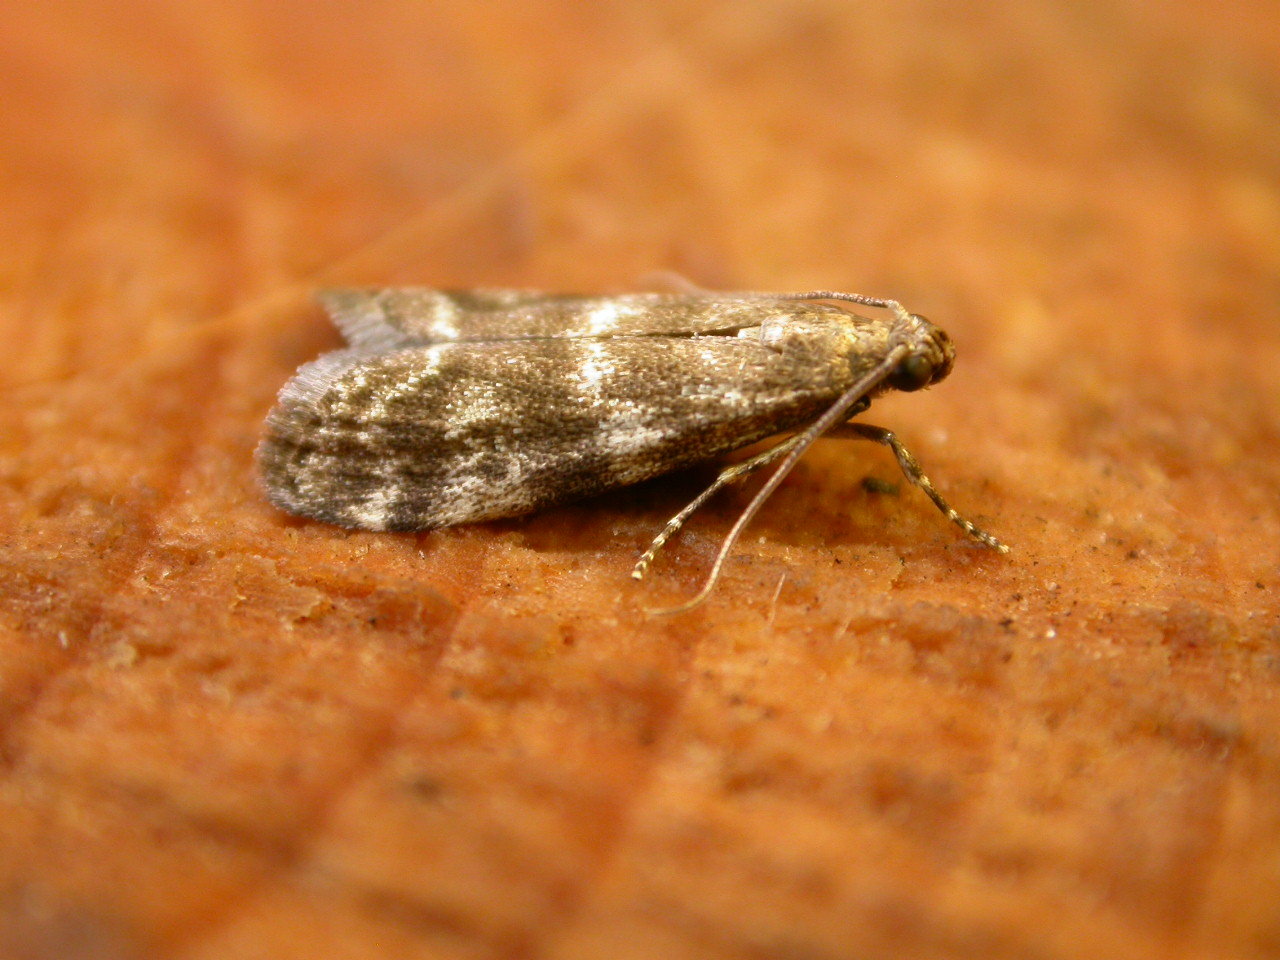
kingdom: Animalia
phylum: Arthropoda
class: Insecta
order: Lepidoptera
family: Pyralidae
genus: Assara
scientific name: Assara terebrella
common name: Dark spruce knot-horn
